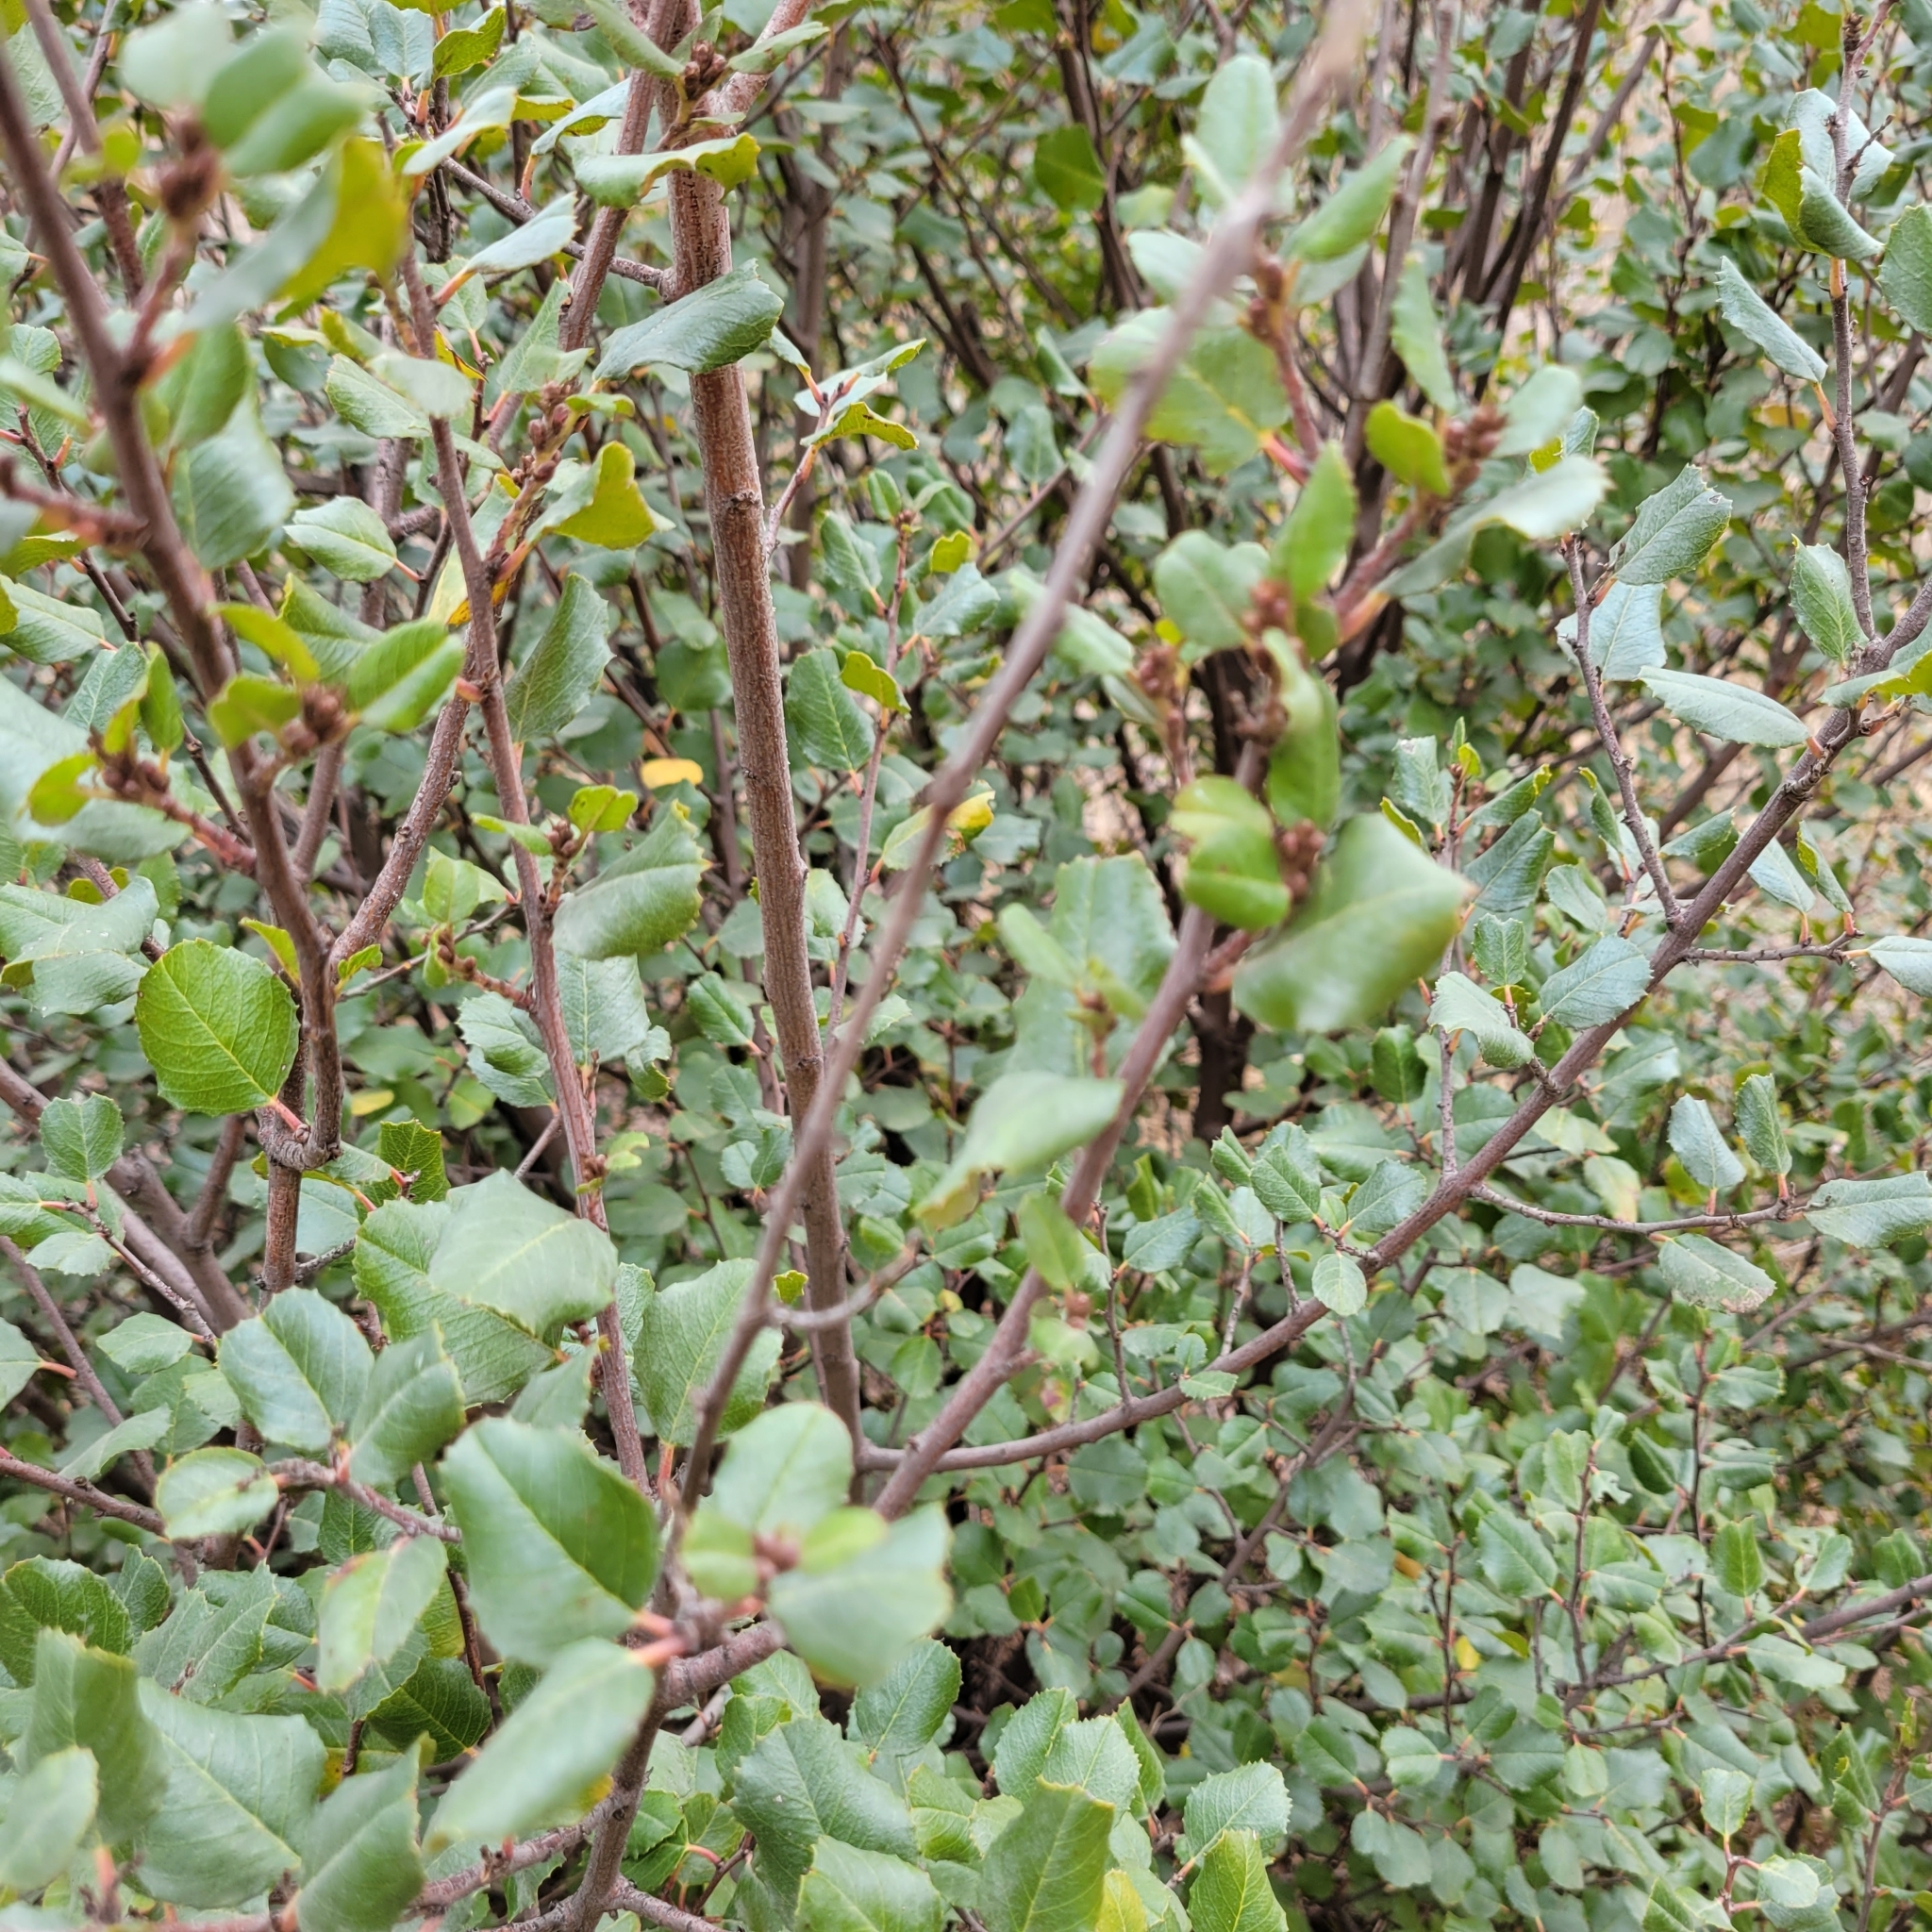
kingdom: Plantae
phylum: Tracheophyta
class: Magnoliopsida
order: Rosales
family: Rhamnaceae
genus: Endotropis
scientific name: Endotropis crocea
